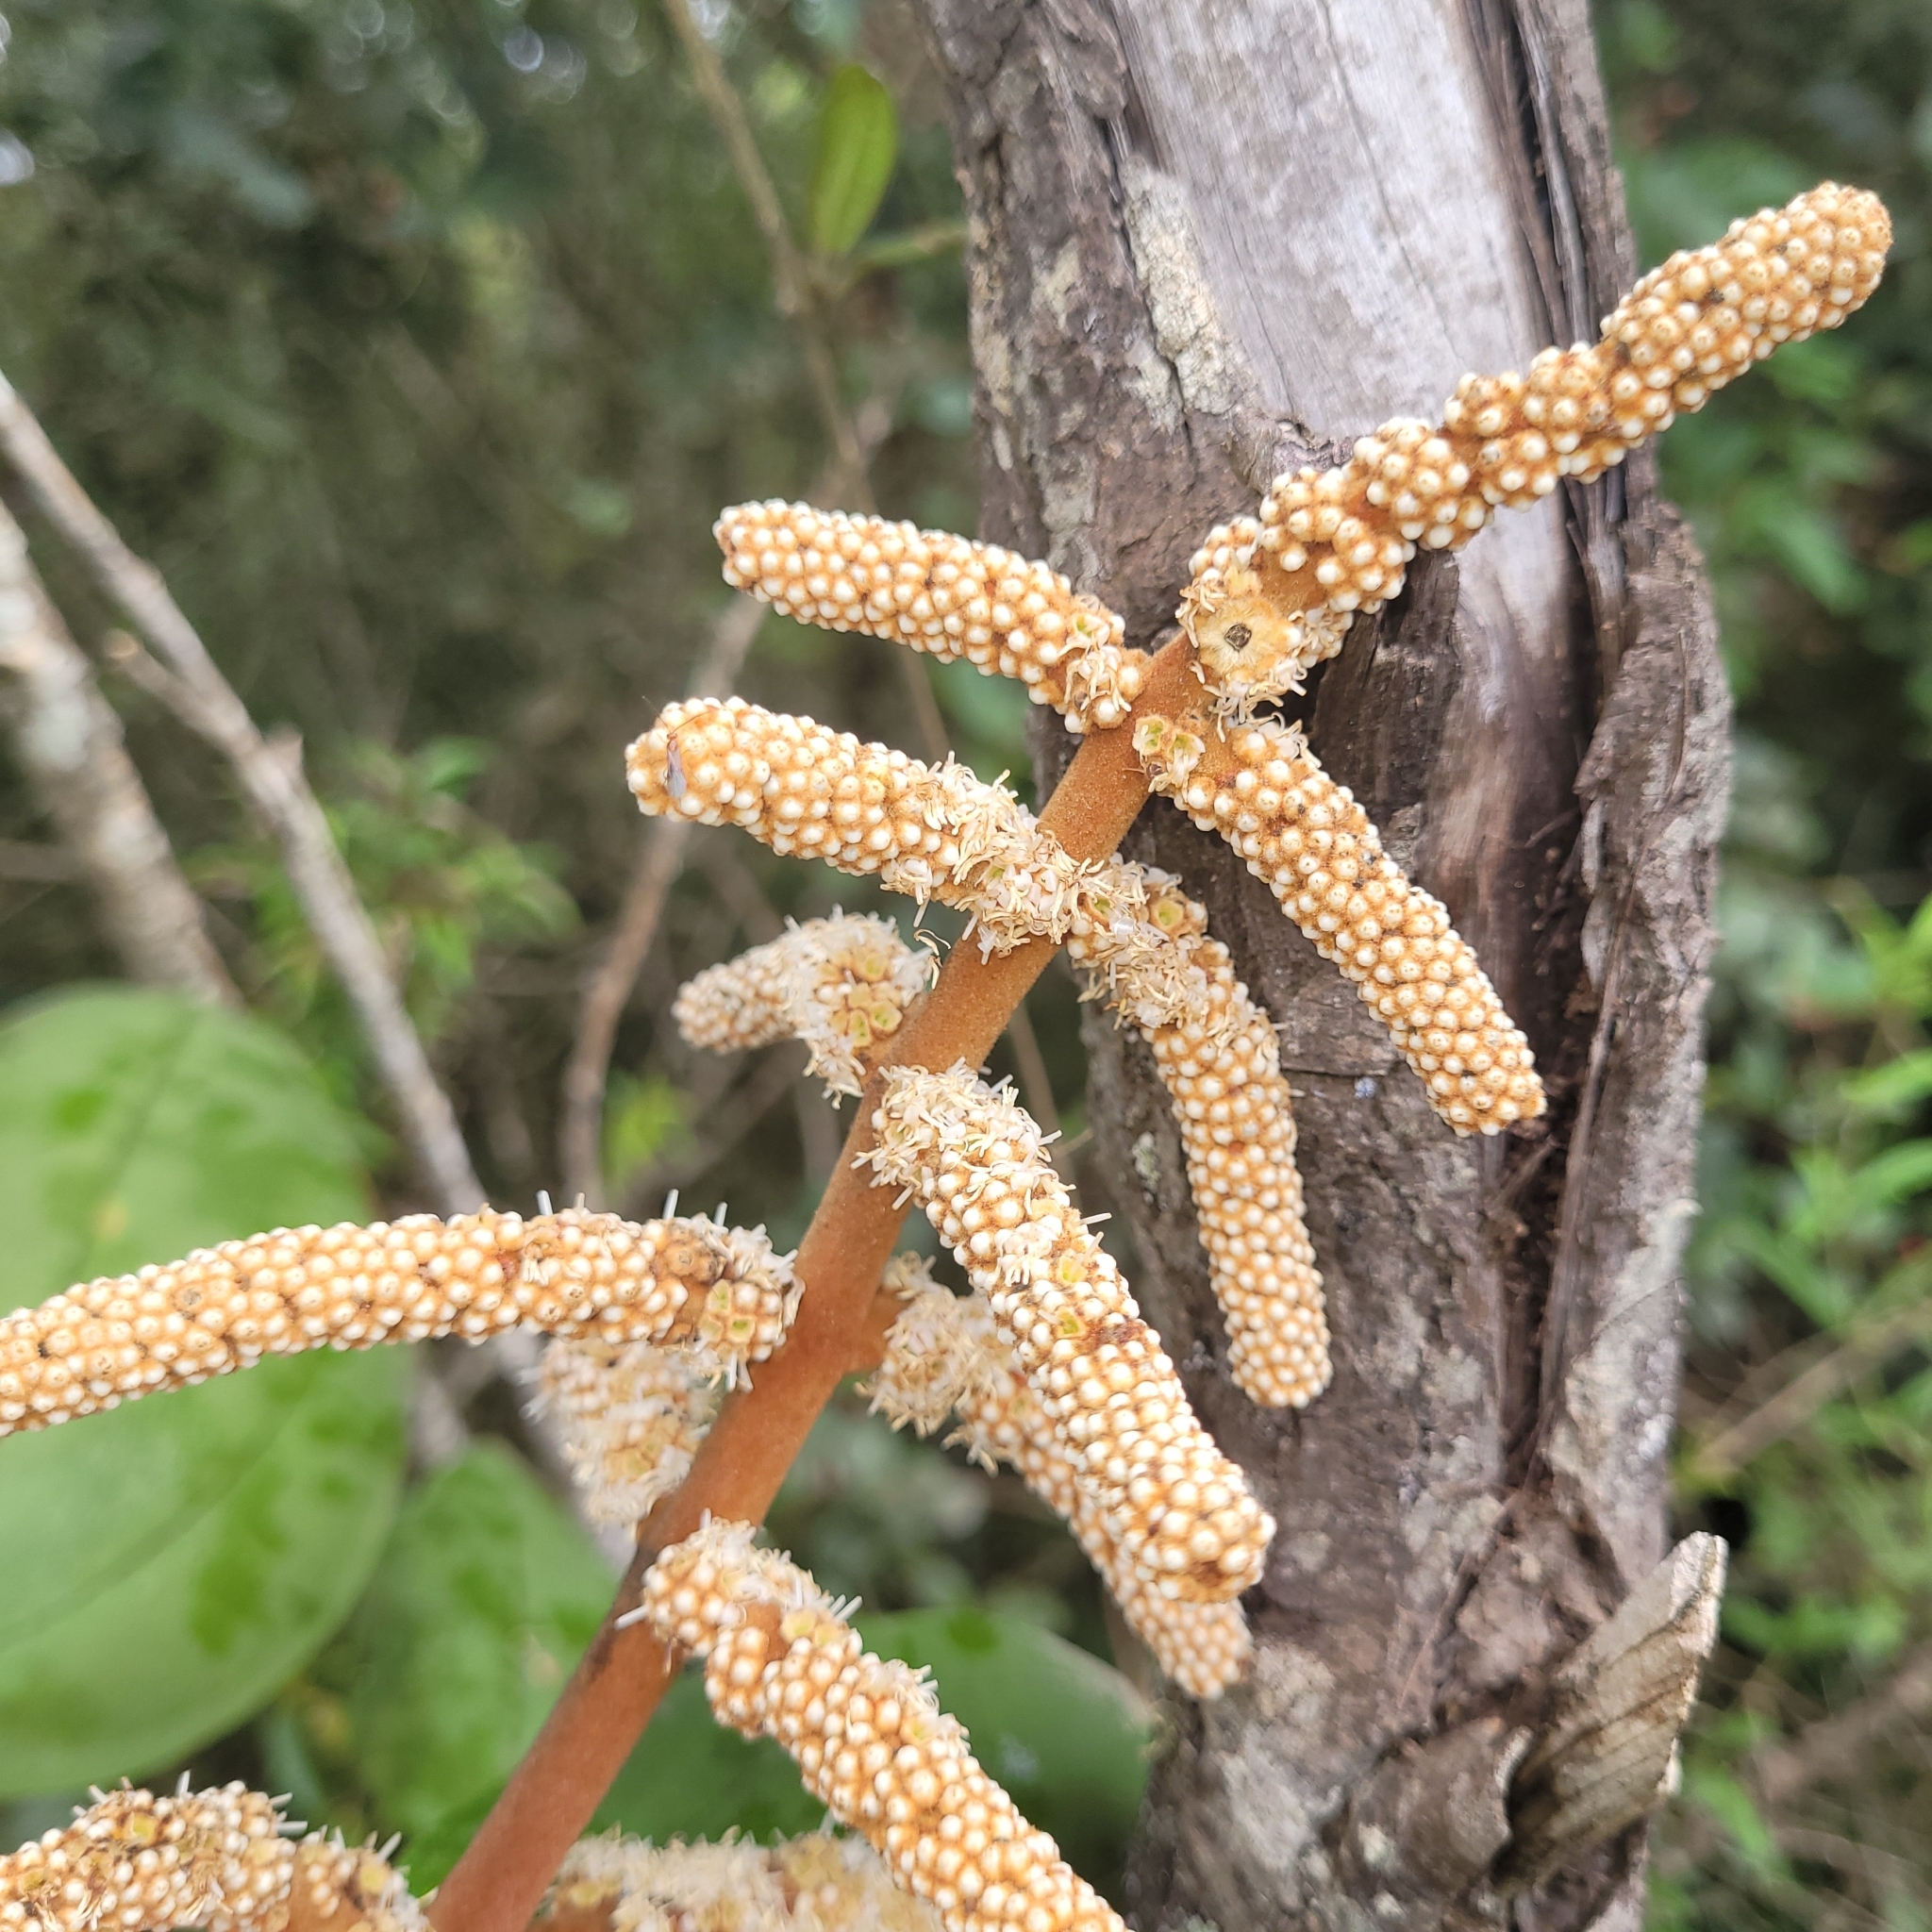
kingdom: Plantae
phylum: Tracheophyta
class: Magnoliopsida
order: Myrtales
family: Melastomataceae
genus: Miconia
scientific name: Miconia corallina
